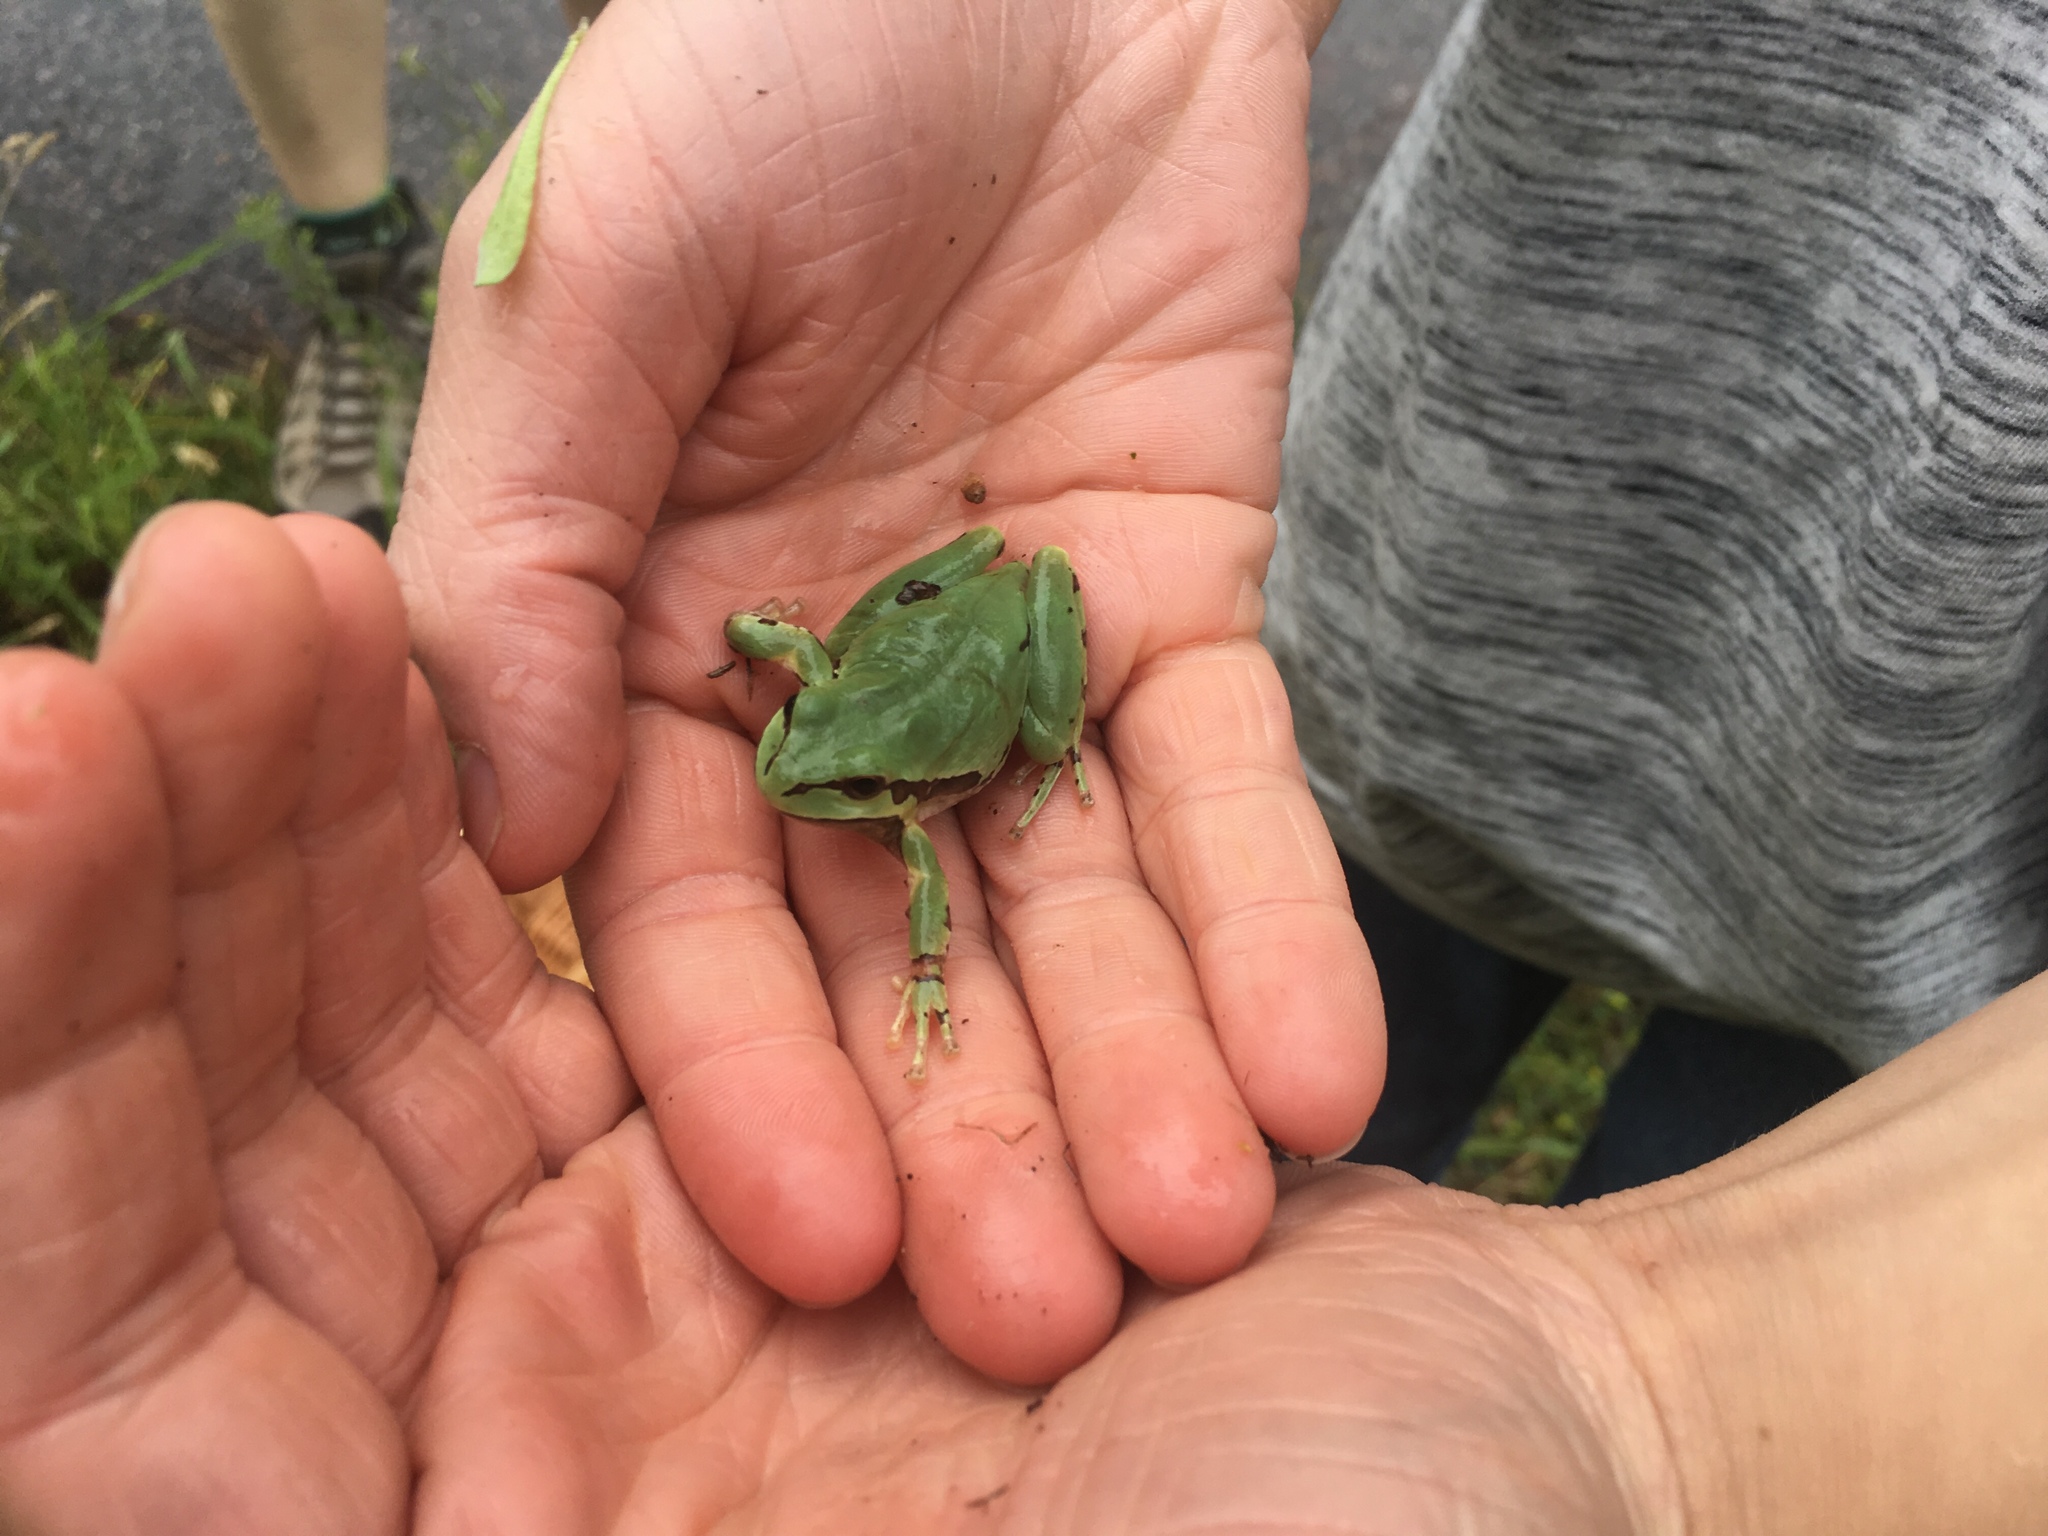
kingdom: Animalia
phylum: Chordata
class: Amphibia
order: Anura
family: Hylidae
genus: Dryophytes
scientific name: Dryophytes wrightorum
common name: Arizona treefrog
